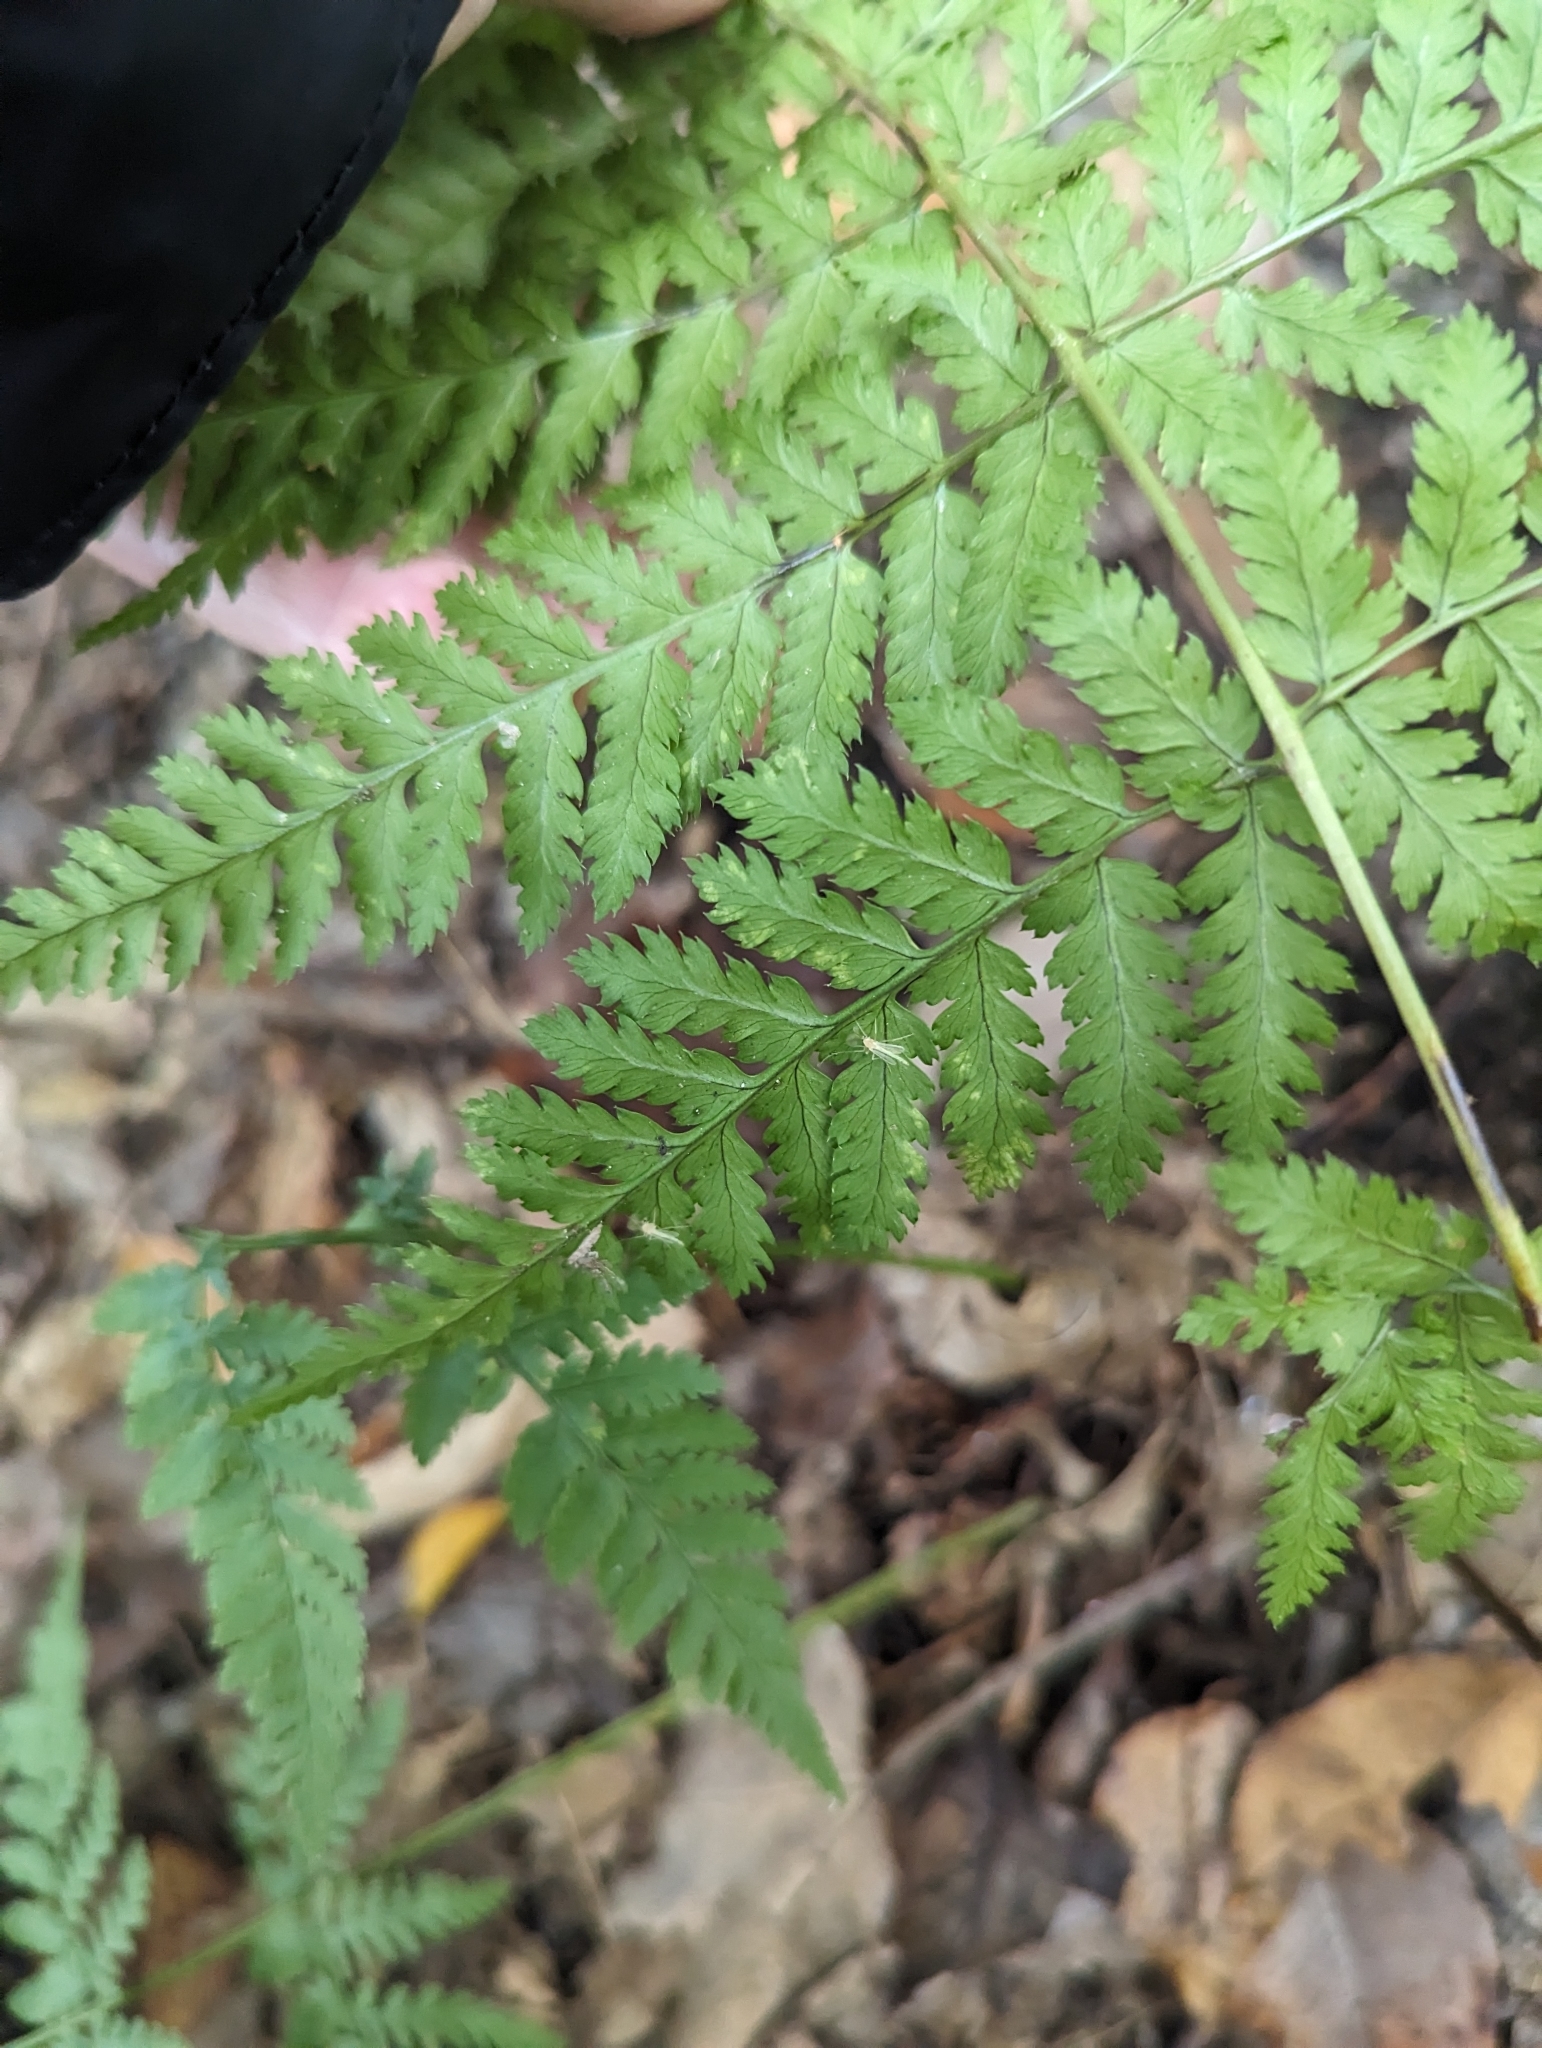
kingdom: Plantae
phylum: Tracheophyta
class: Polypodiopsida
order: Polypodiales
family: Dryopteridaceae
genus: Dryopteris
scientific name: Dryopteris carthusiana
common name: Narrow buckler-fern
